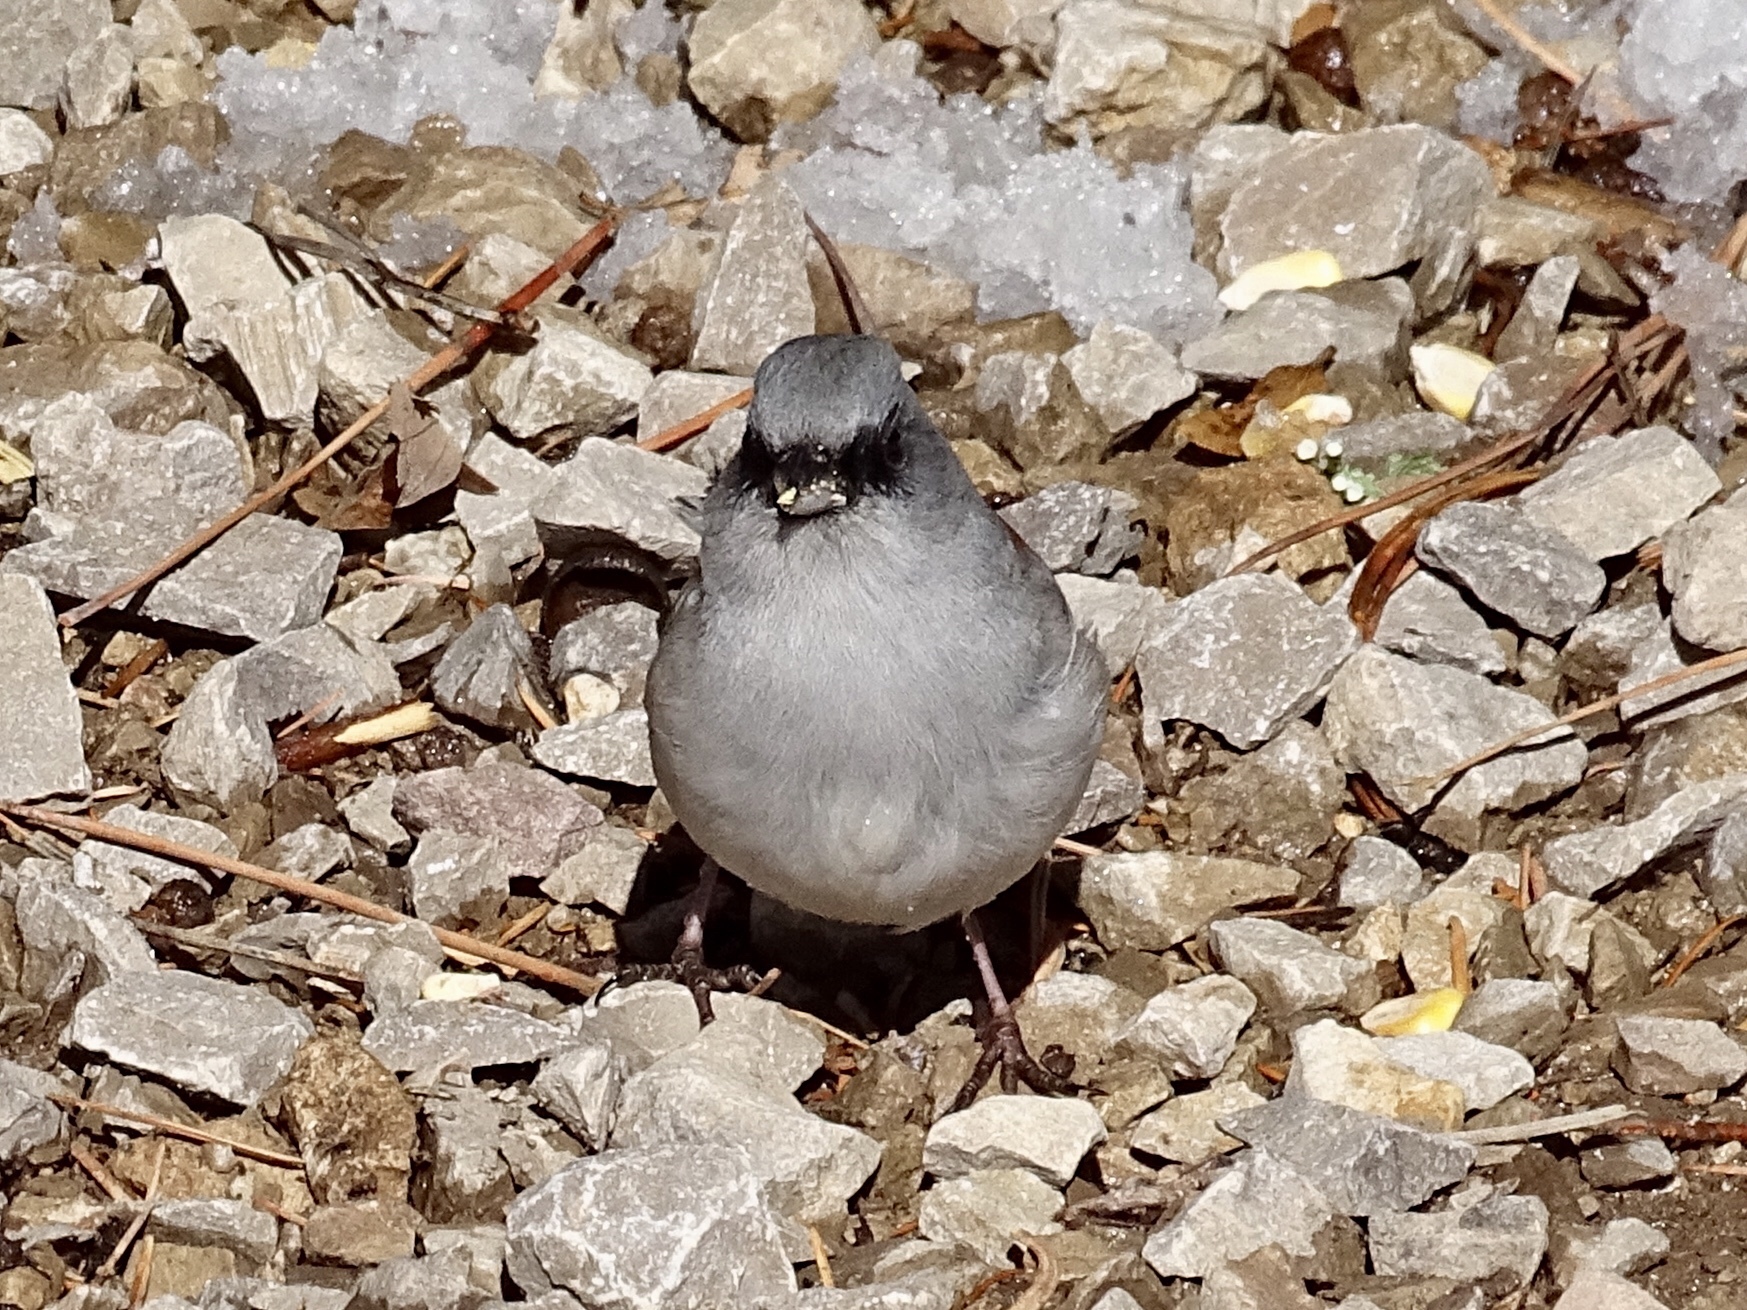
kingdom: Animalia
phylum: Chordata
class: Aves
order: Passeriformes
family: Passerellidae
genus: Junco
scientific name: Junco hyemalis
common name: Dark-eyed junco
